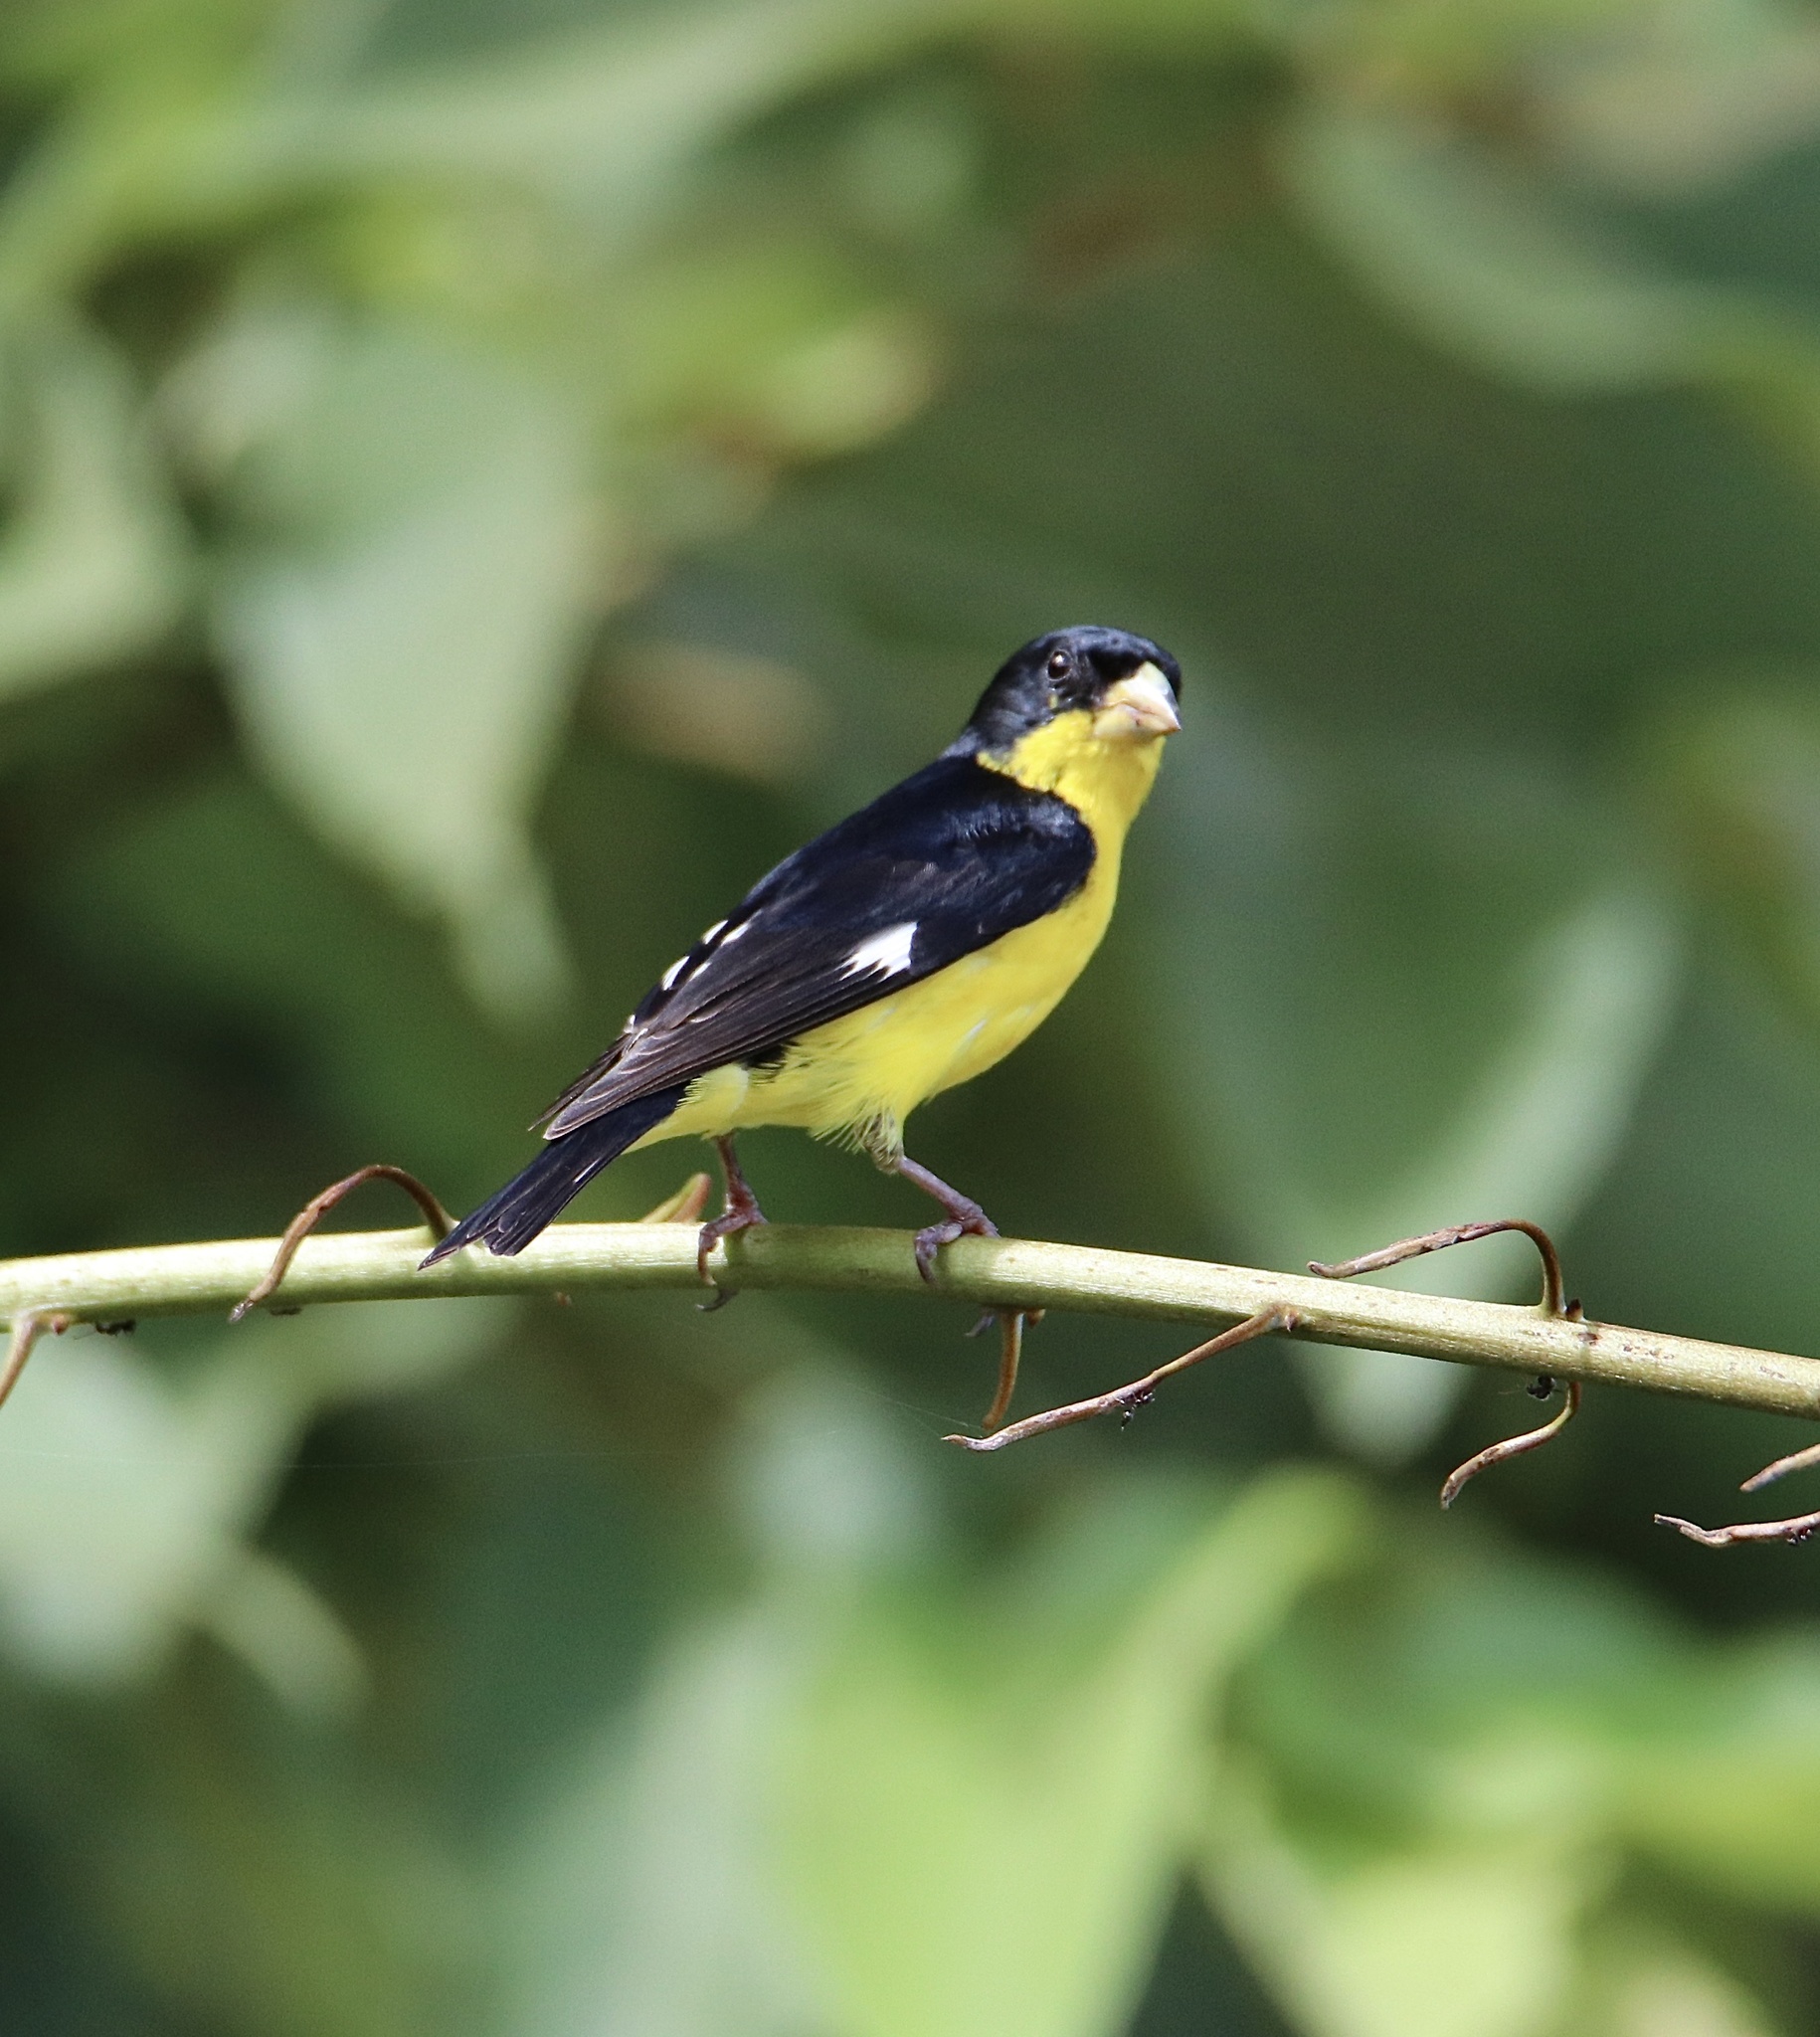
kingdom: Animalia
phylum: Chordata
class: Aves
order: Passeriformes
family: Fringillidae
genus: Spinus
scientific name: Spinus psaltria
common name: Lesser goldfinch
